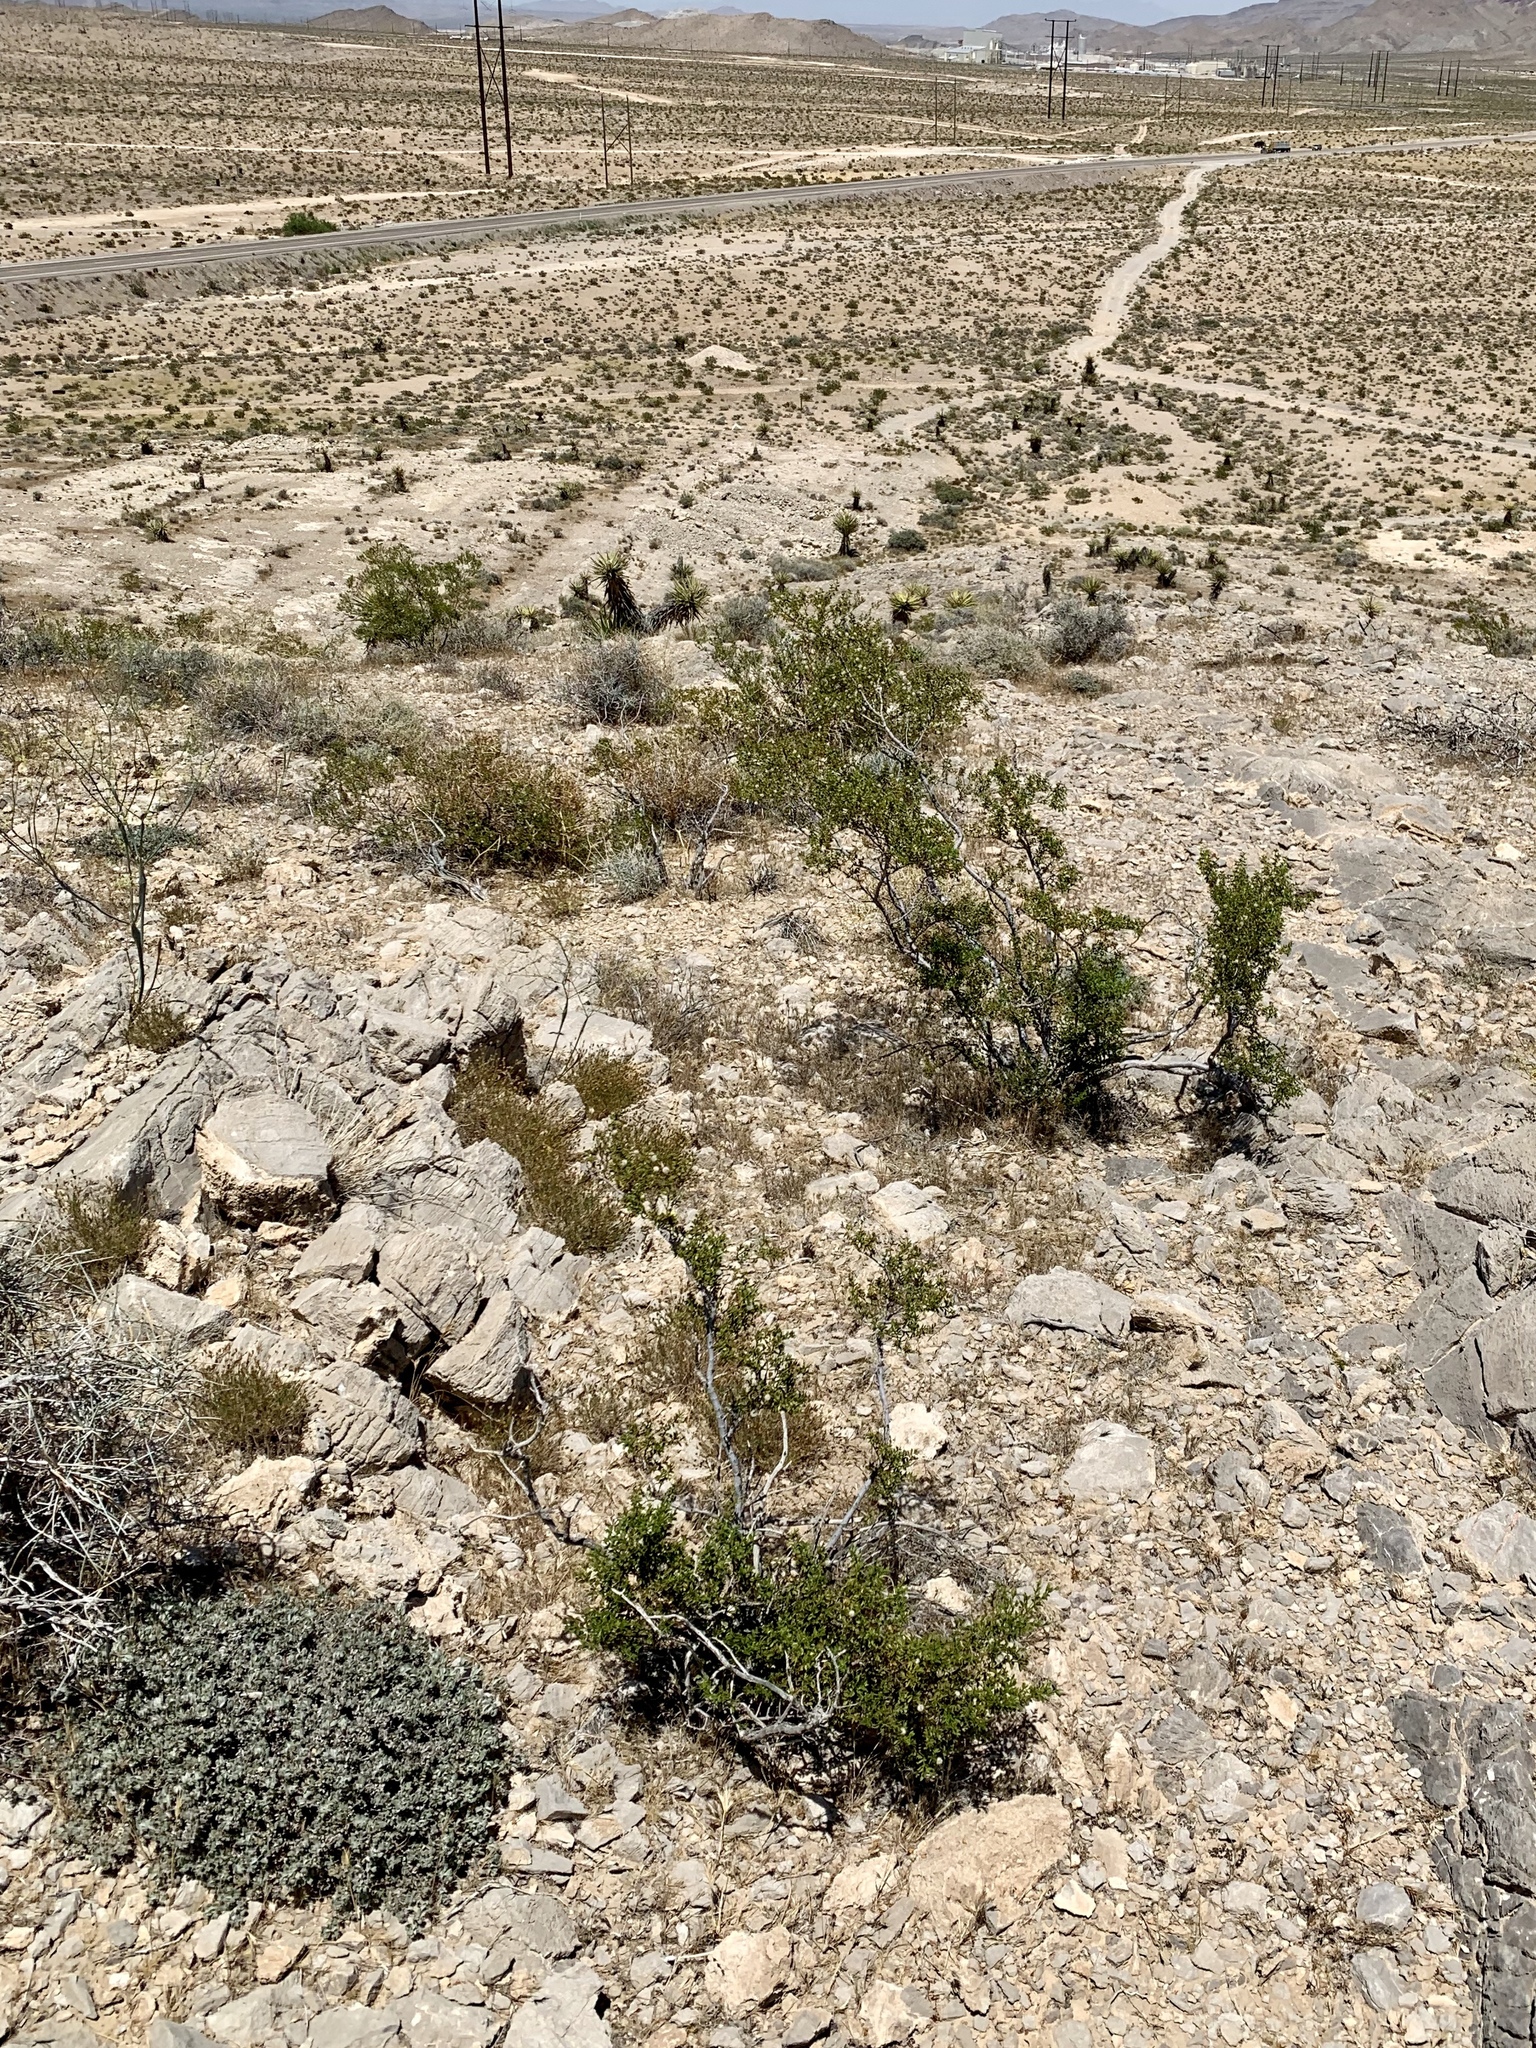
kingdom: Plantae
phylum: Tracheophyta
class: Magnoliopsida
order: Zygophyllales
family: Zygophyllaceae
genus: Larrea
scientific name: Larrea tridentata
